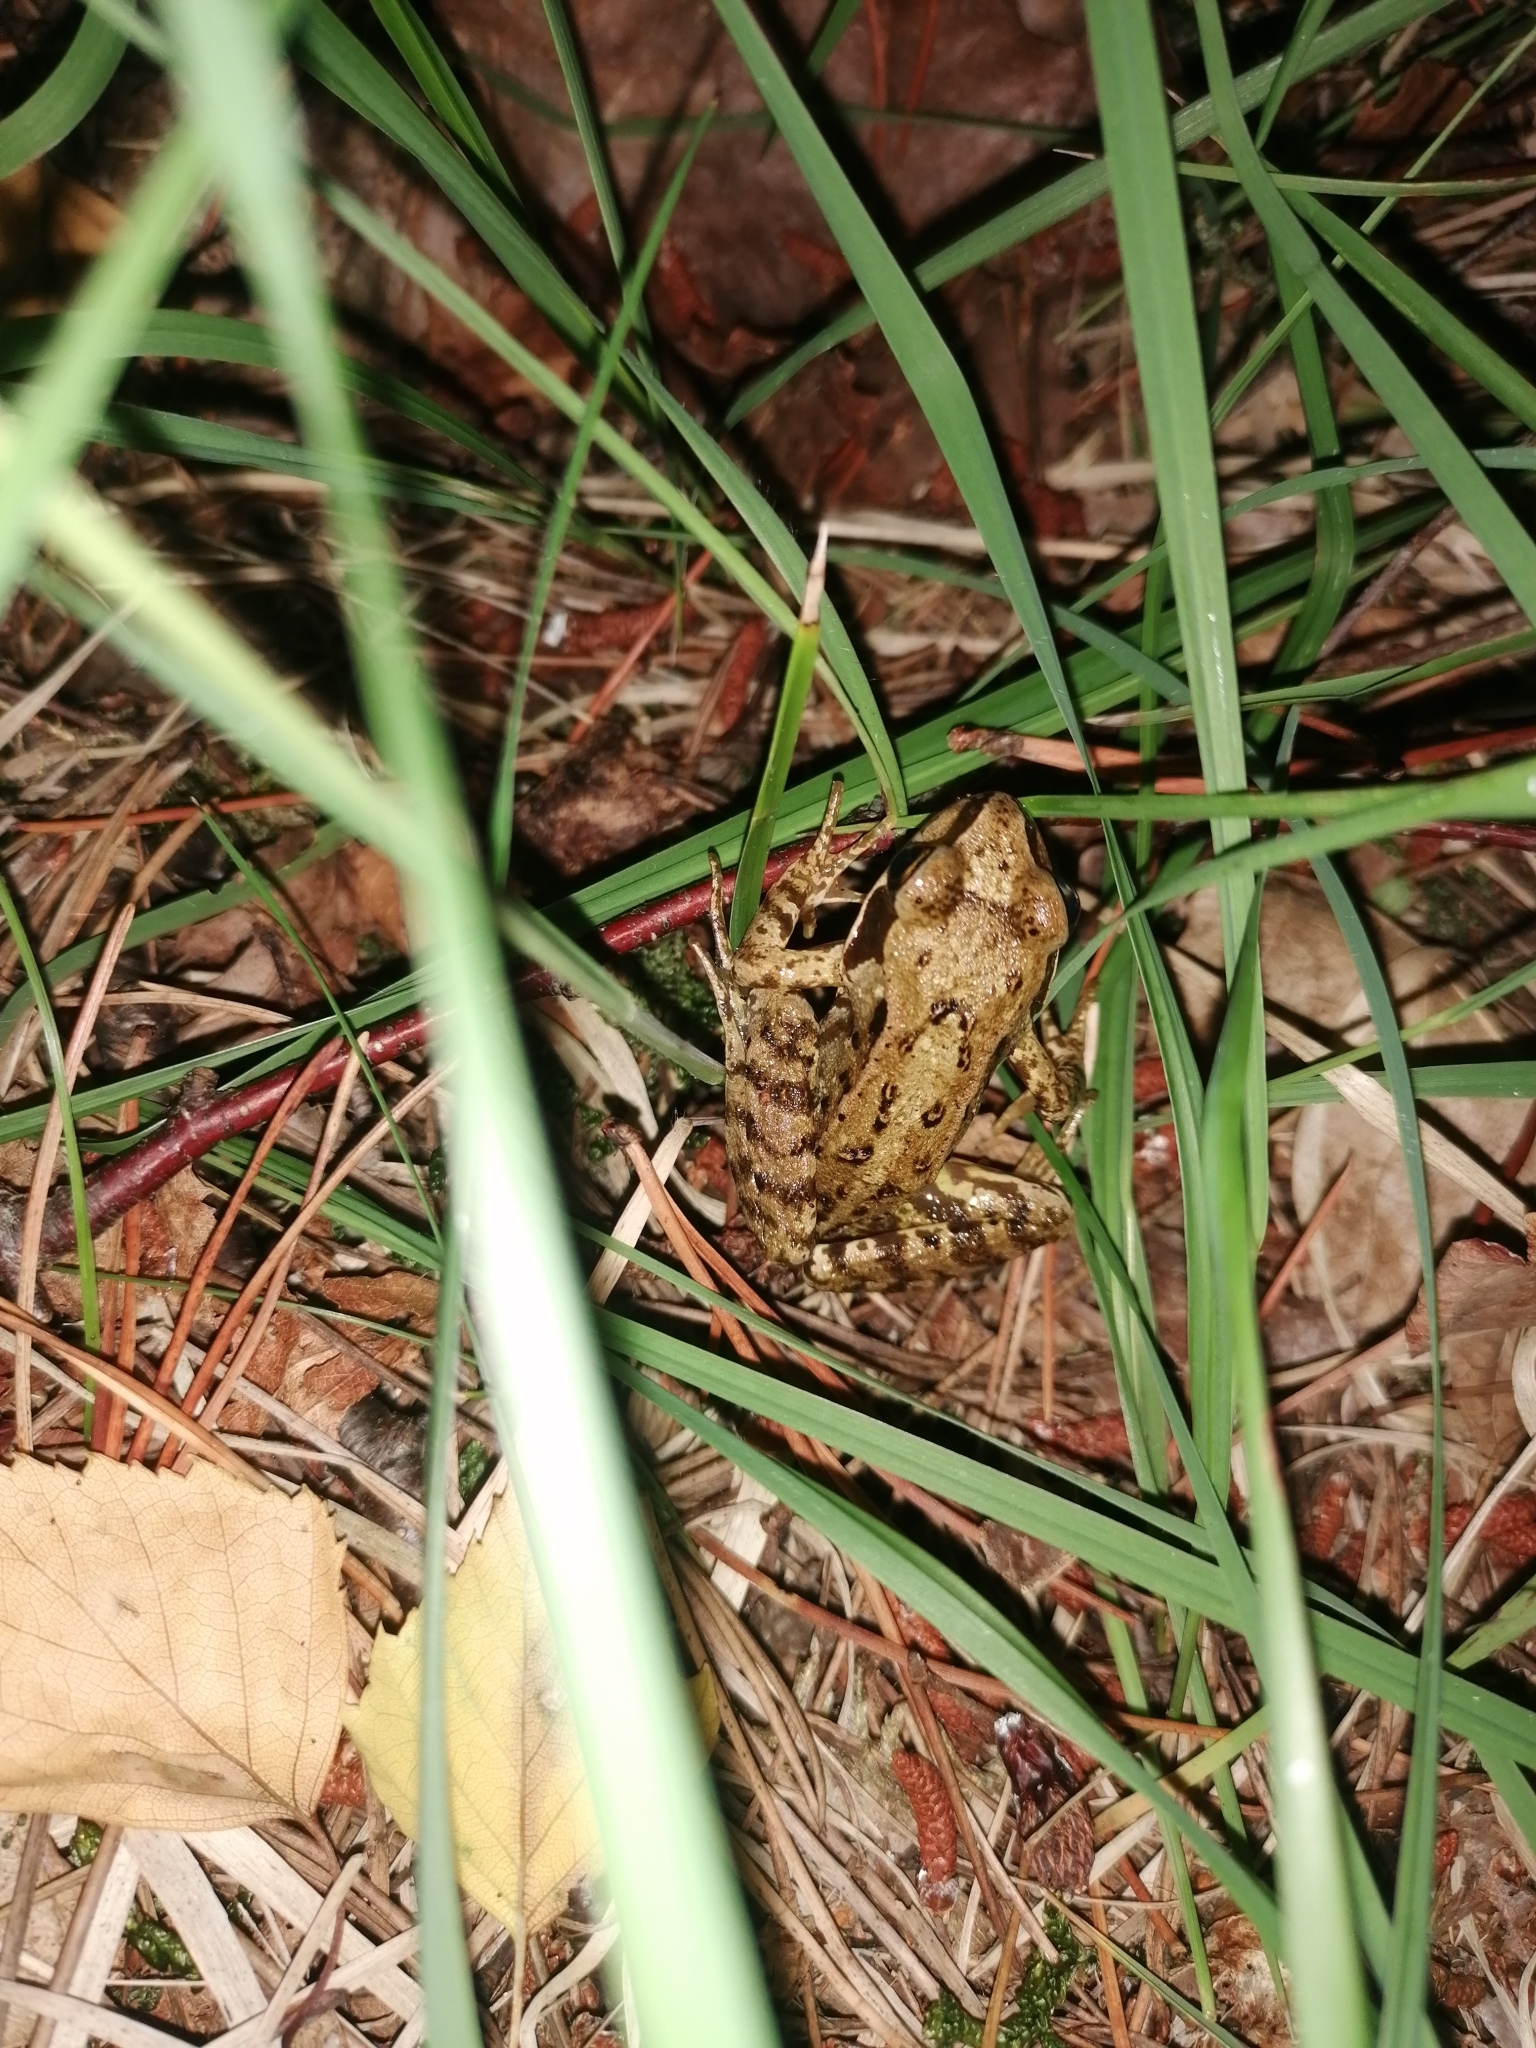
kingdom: Animalia
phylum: Chordata
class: Amphibia
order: Anura
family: Ranidae
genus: Rana
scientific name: Rana temporaria
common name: Common frog
